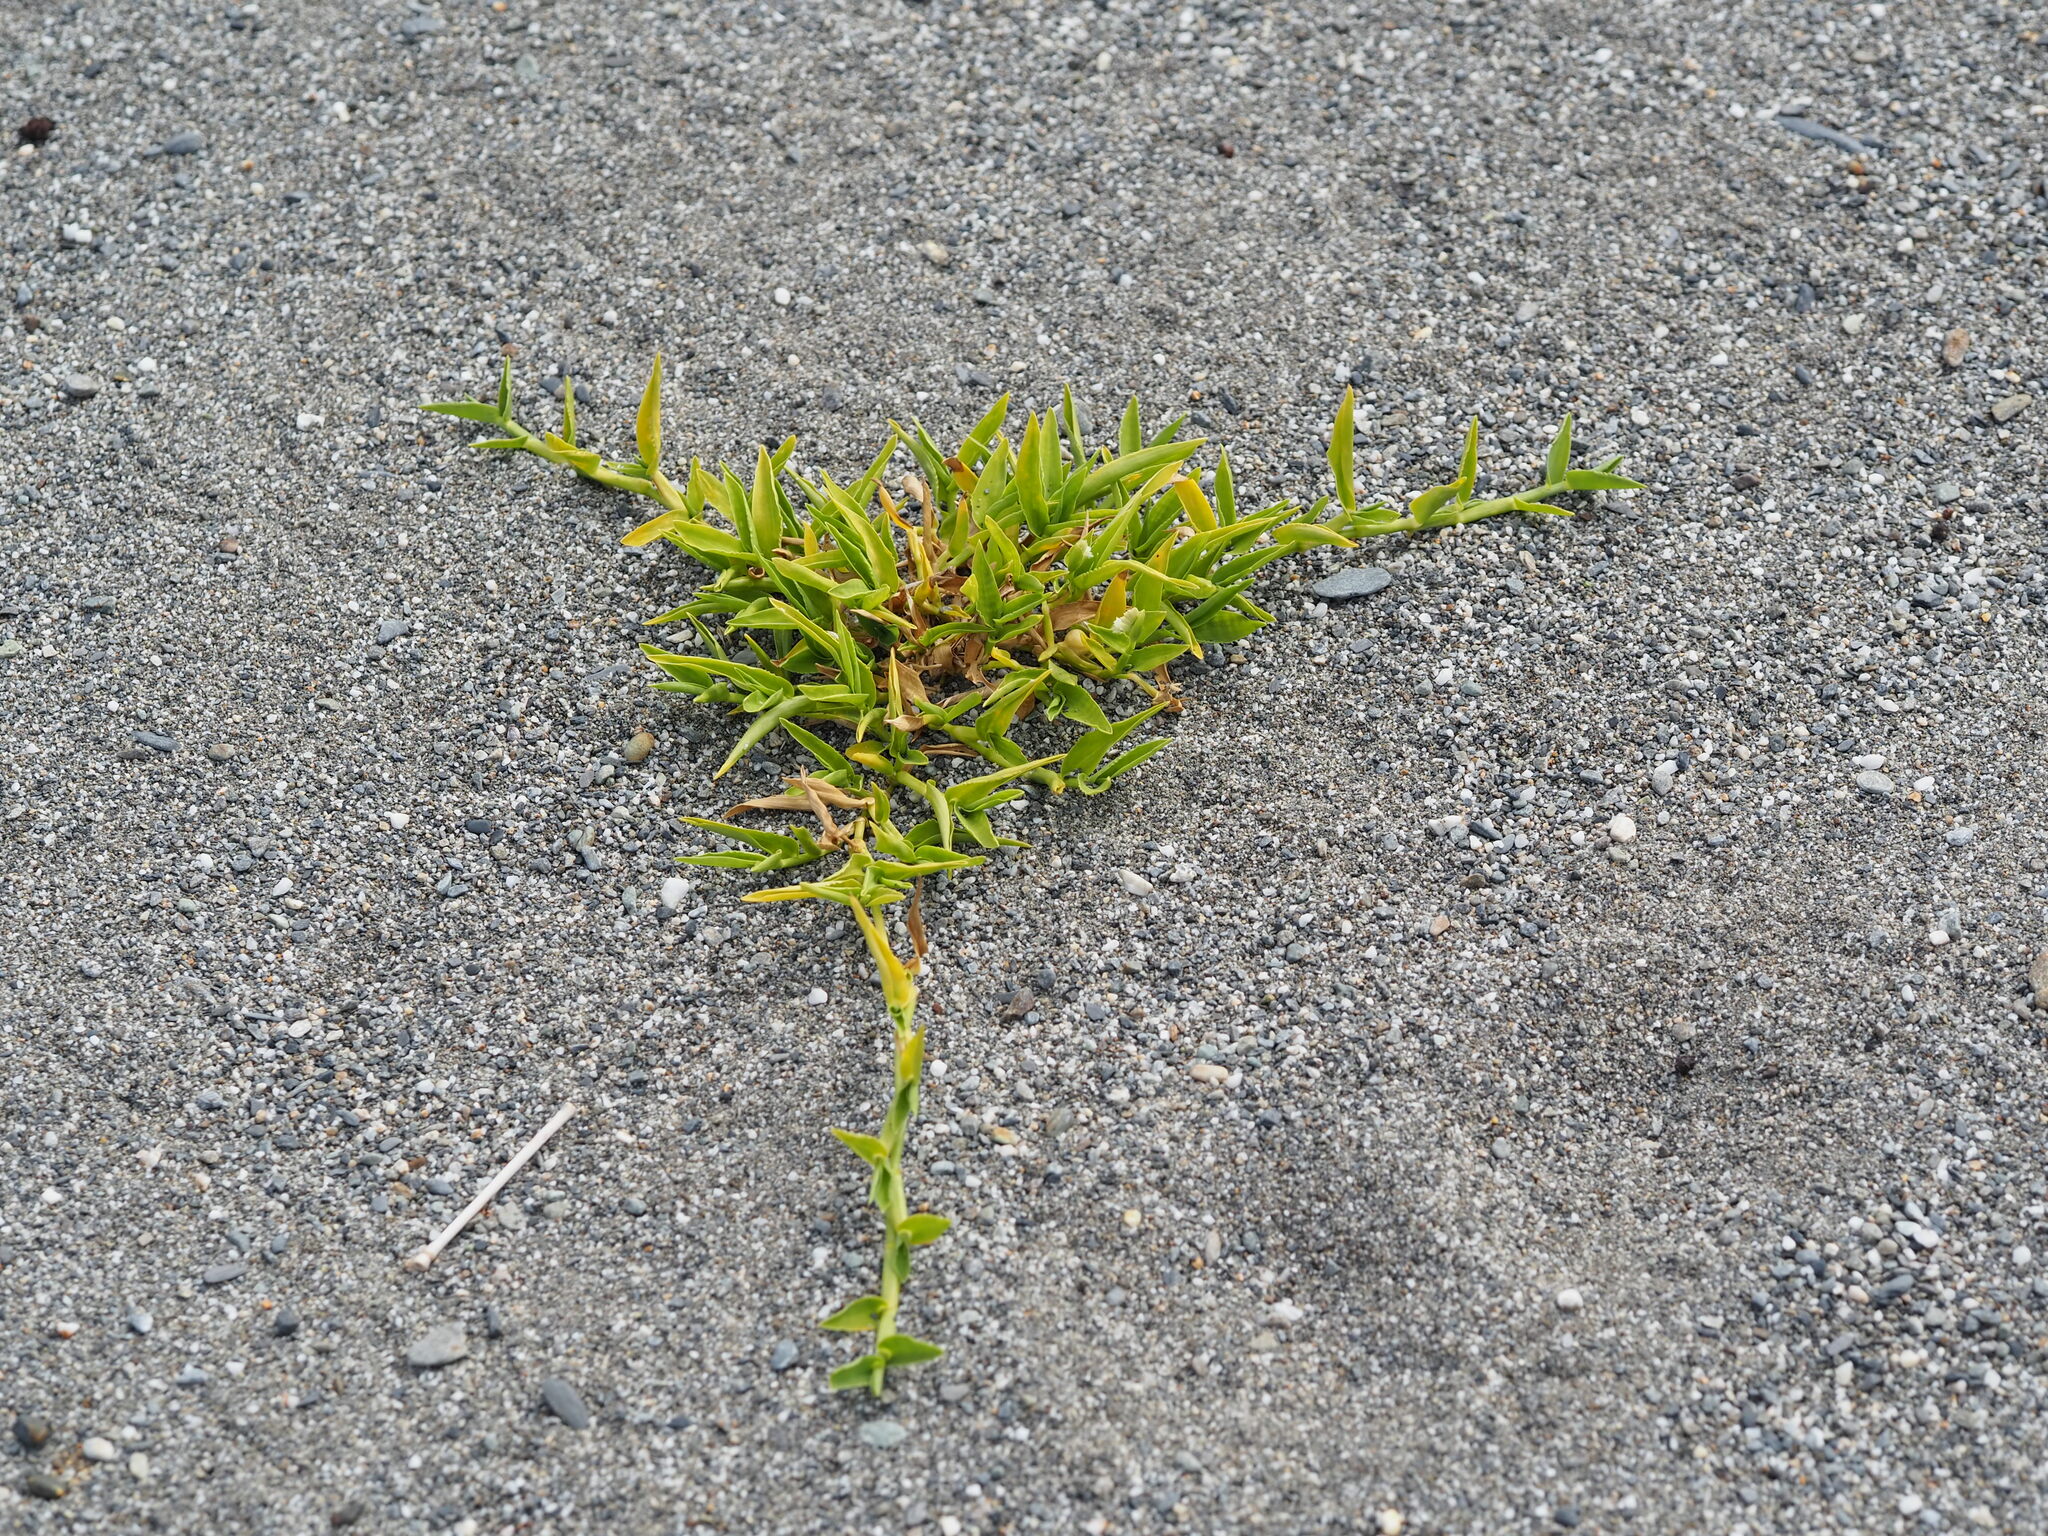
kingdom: Plantae
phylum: Tracheophyta
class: Liliopsida
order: Poales
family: Poaceae
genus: Thuarea
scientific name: Thuarea involuta
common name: Tropical beach grass
